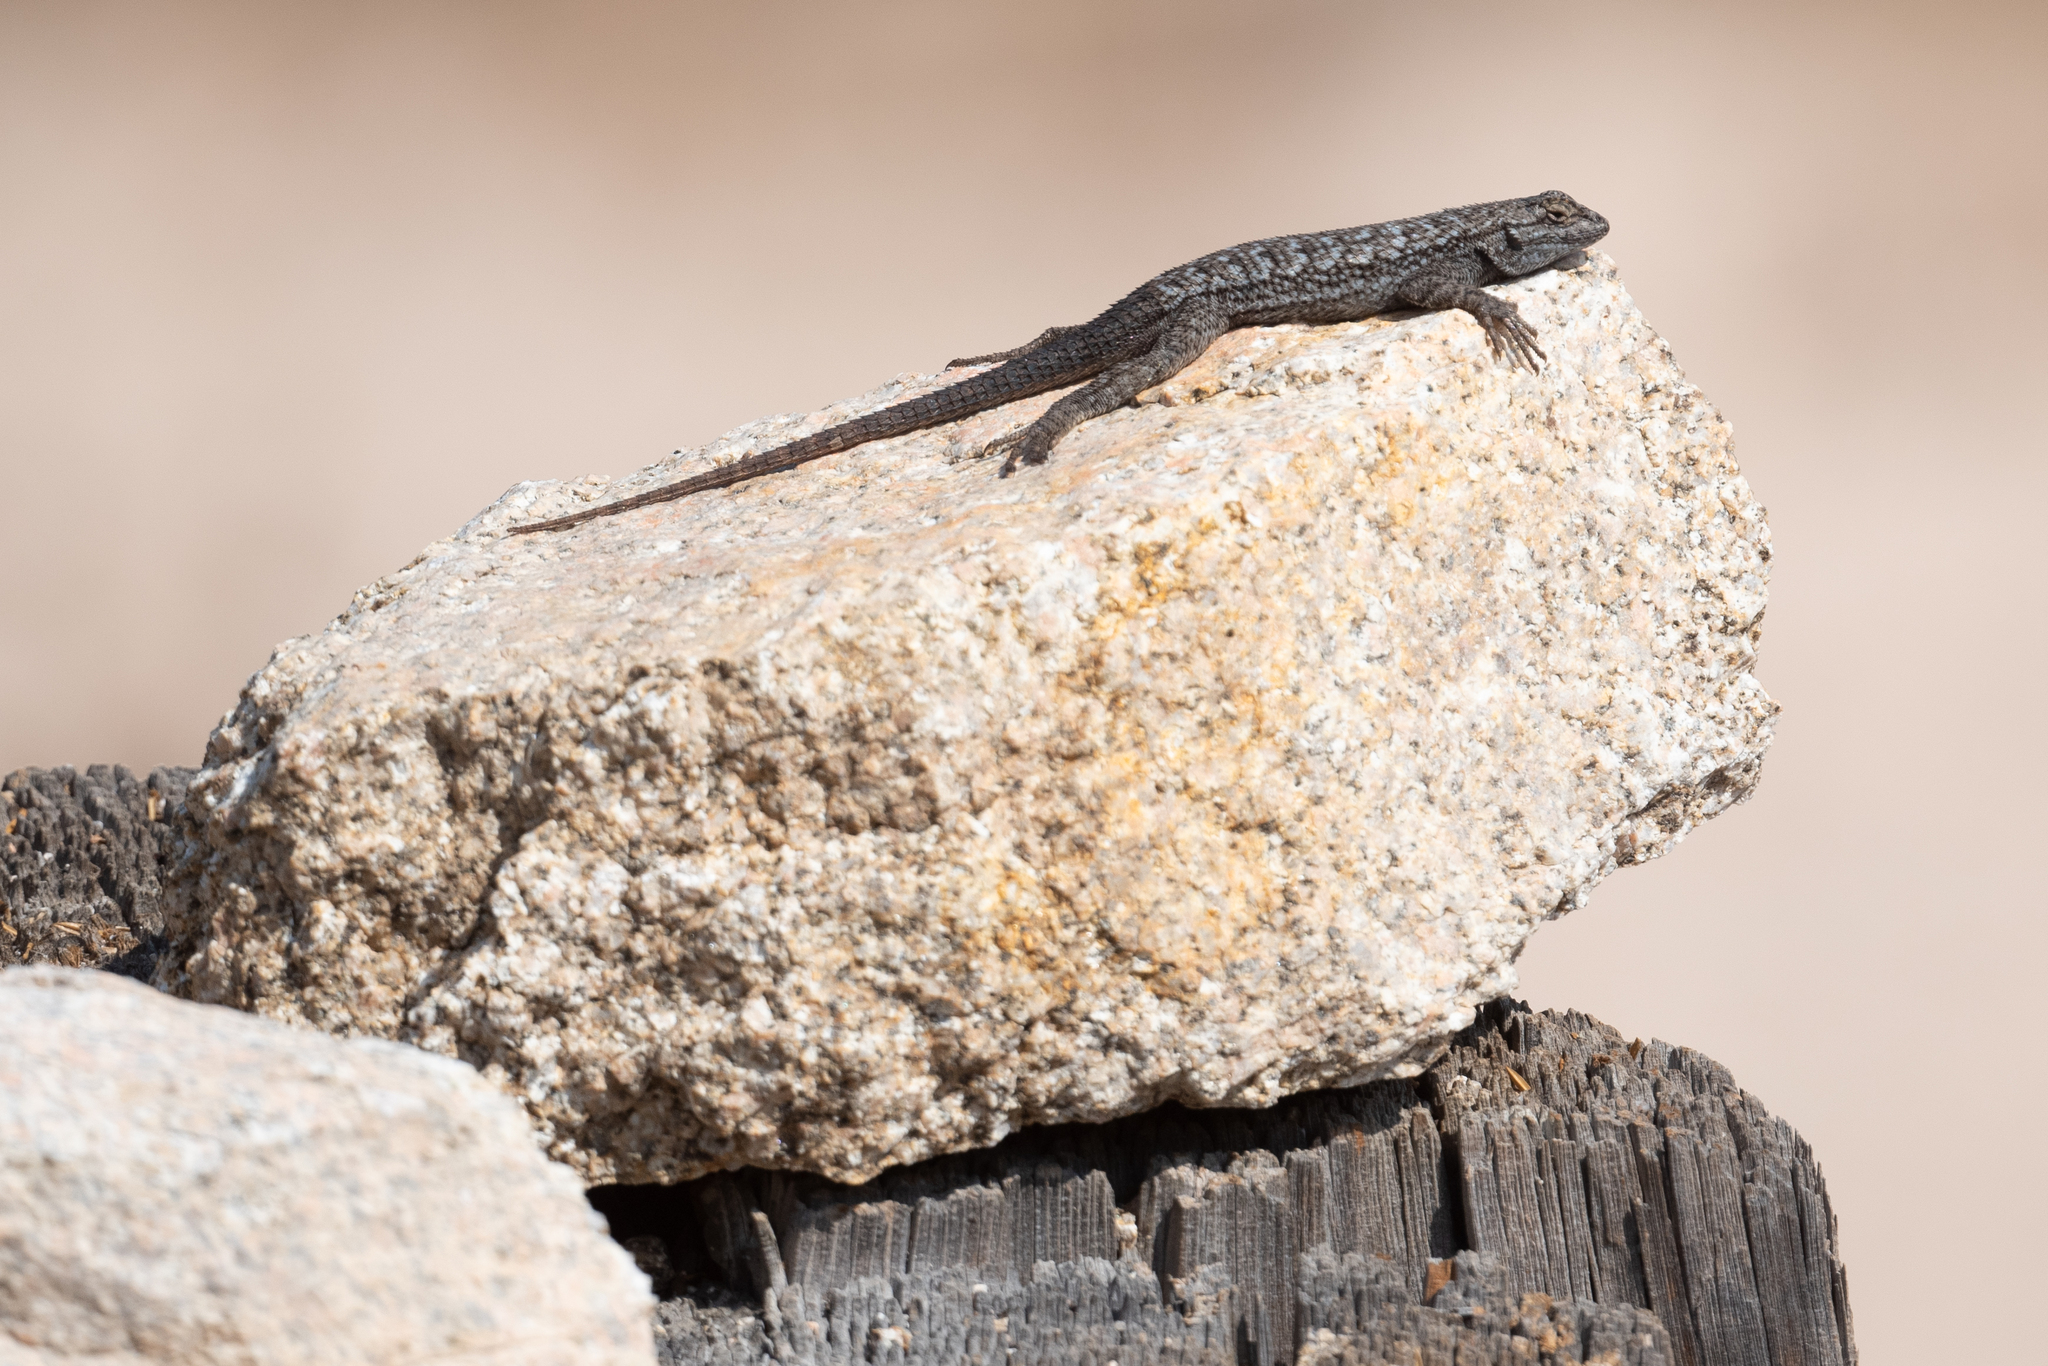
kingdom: Animalia
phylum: Chordata
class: Squamata
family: Phrynosomatidae
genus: Sceloporus
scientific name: Sceloporus occidentalis
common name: Western fence lizard
